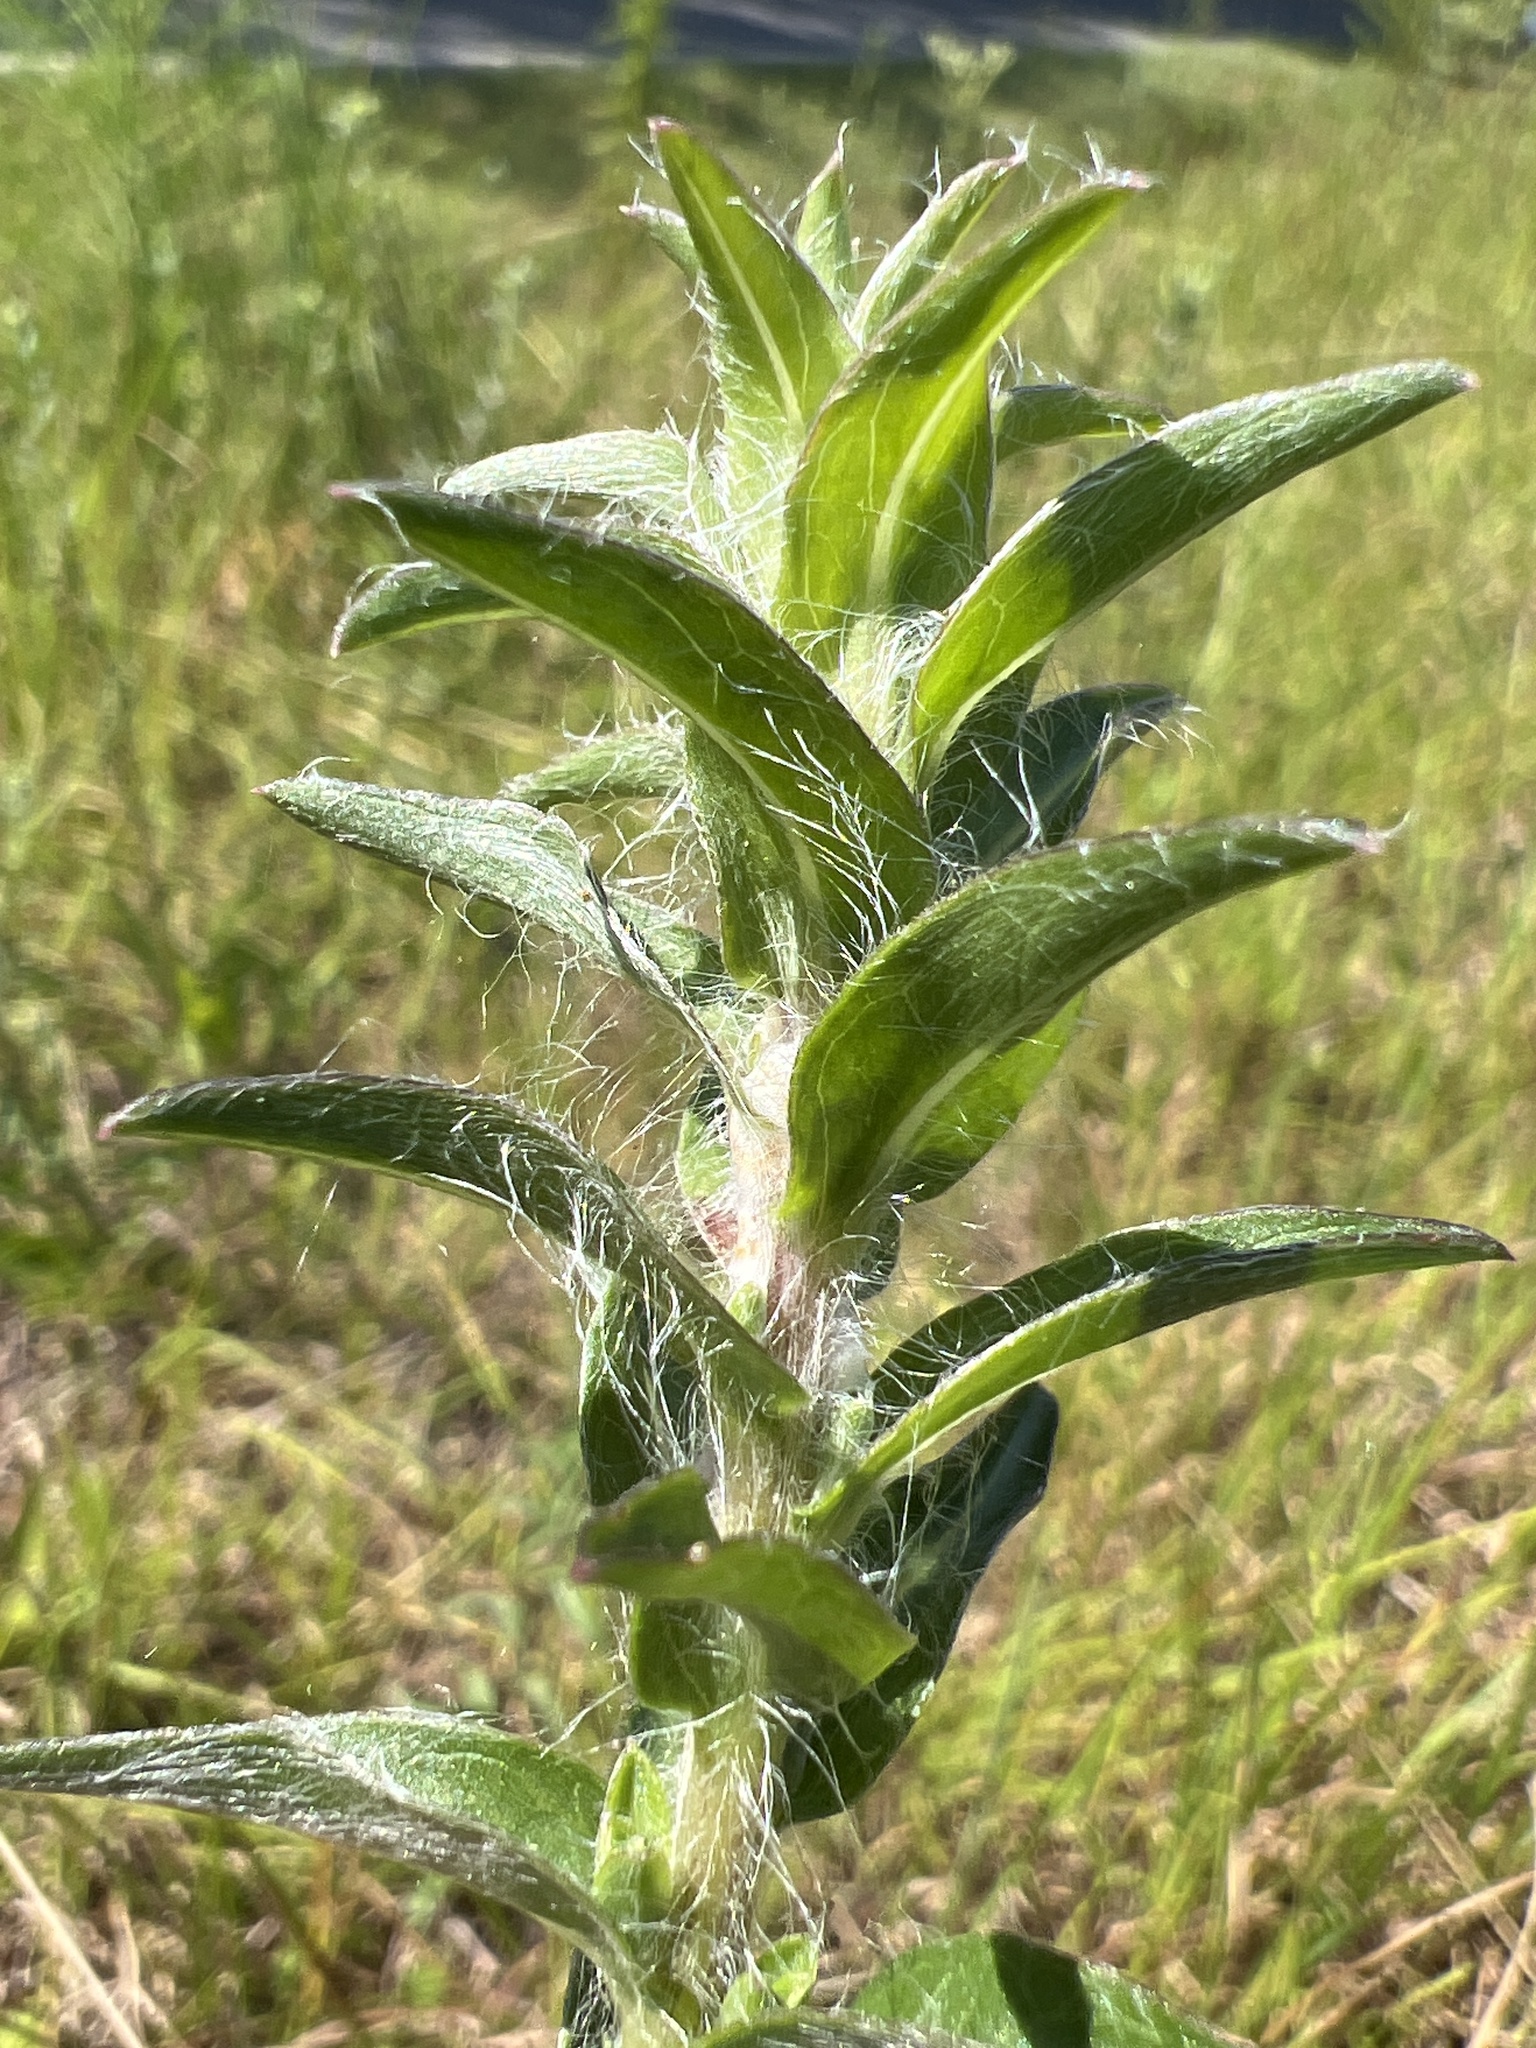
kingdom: Plantae
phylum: Tracheophyta
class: Magnoliopsida
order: Asterales
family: Asteraceae
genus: Chrysopsis
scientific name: Chrysopsis mariana
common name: Maryland golden-aster
